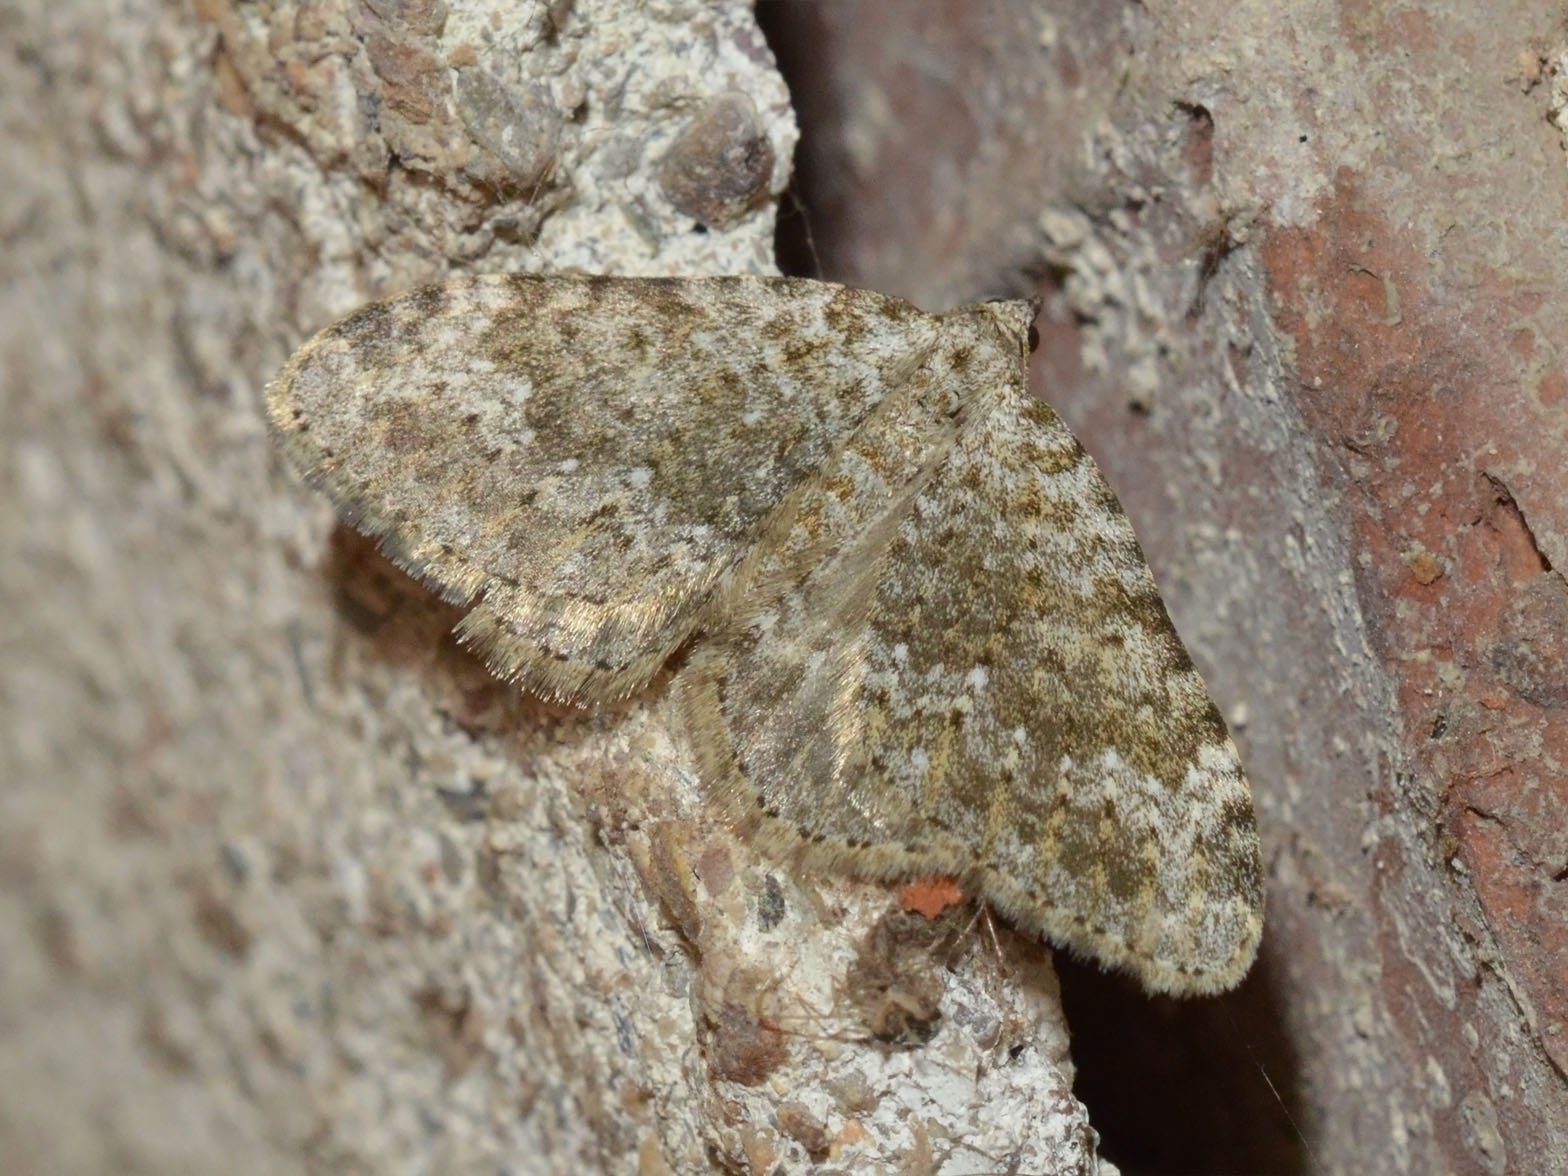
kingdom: Animalia
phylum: Arthropoda
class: Insecta
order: Lepidoptera
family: Geometridae
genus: Nebula
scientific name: Nebula salicata
